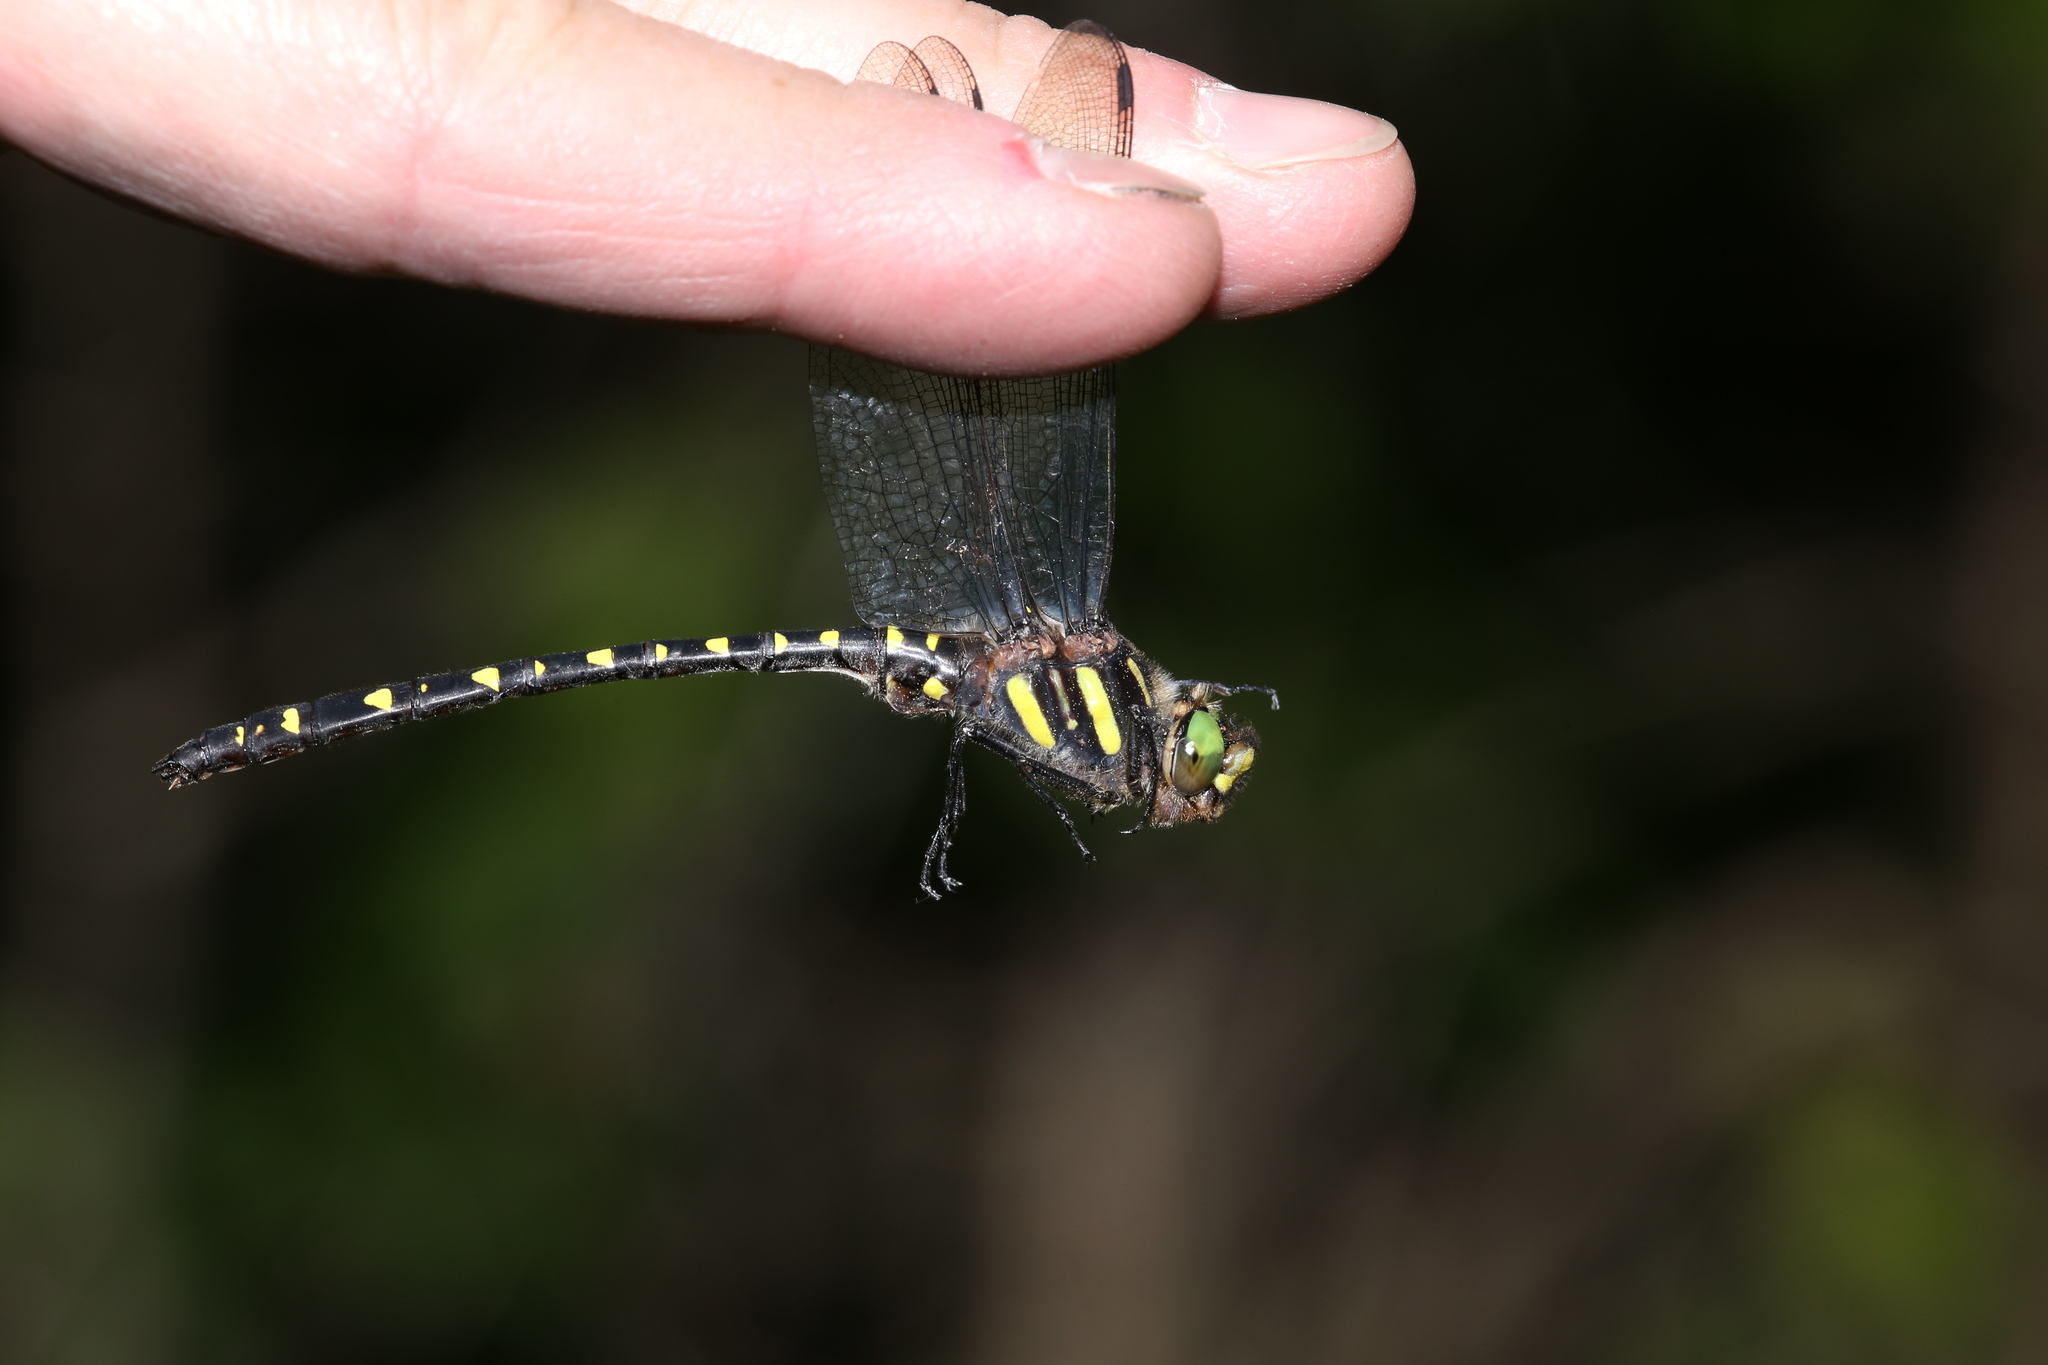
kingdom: Animalia
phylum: Arthropoda
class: Insecta
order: Odonata
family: Cordulegastridae
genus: Cordulegaster
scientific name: Cordulegaster maculata
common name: Twin-spotted spiketail
